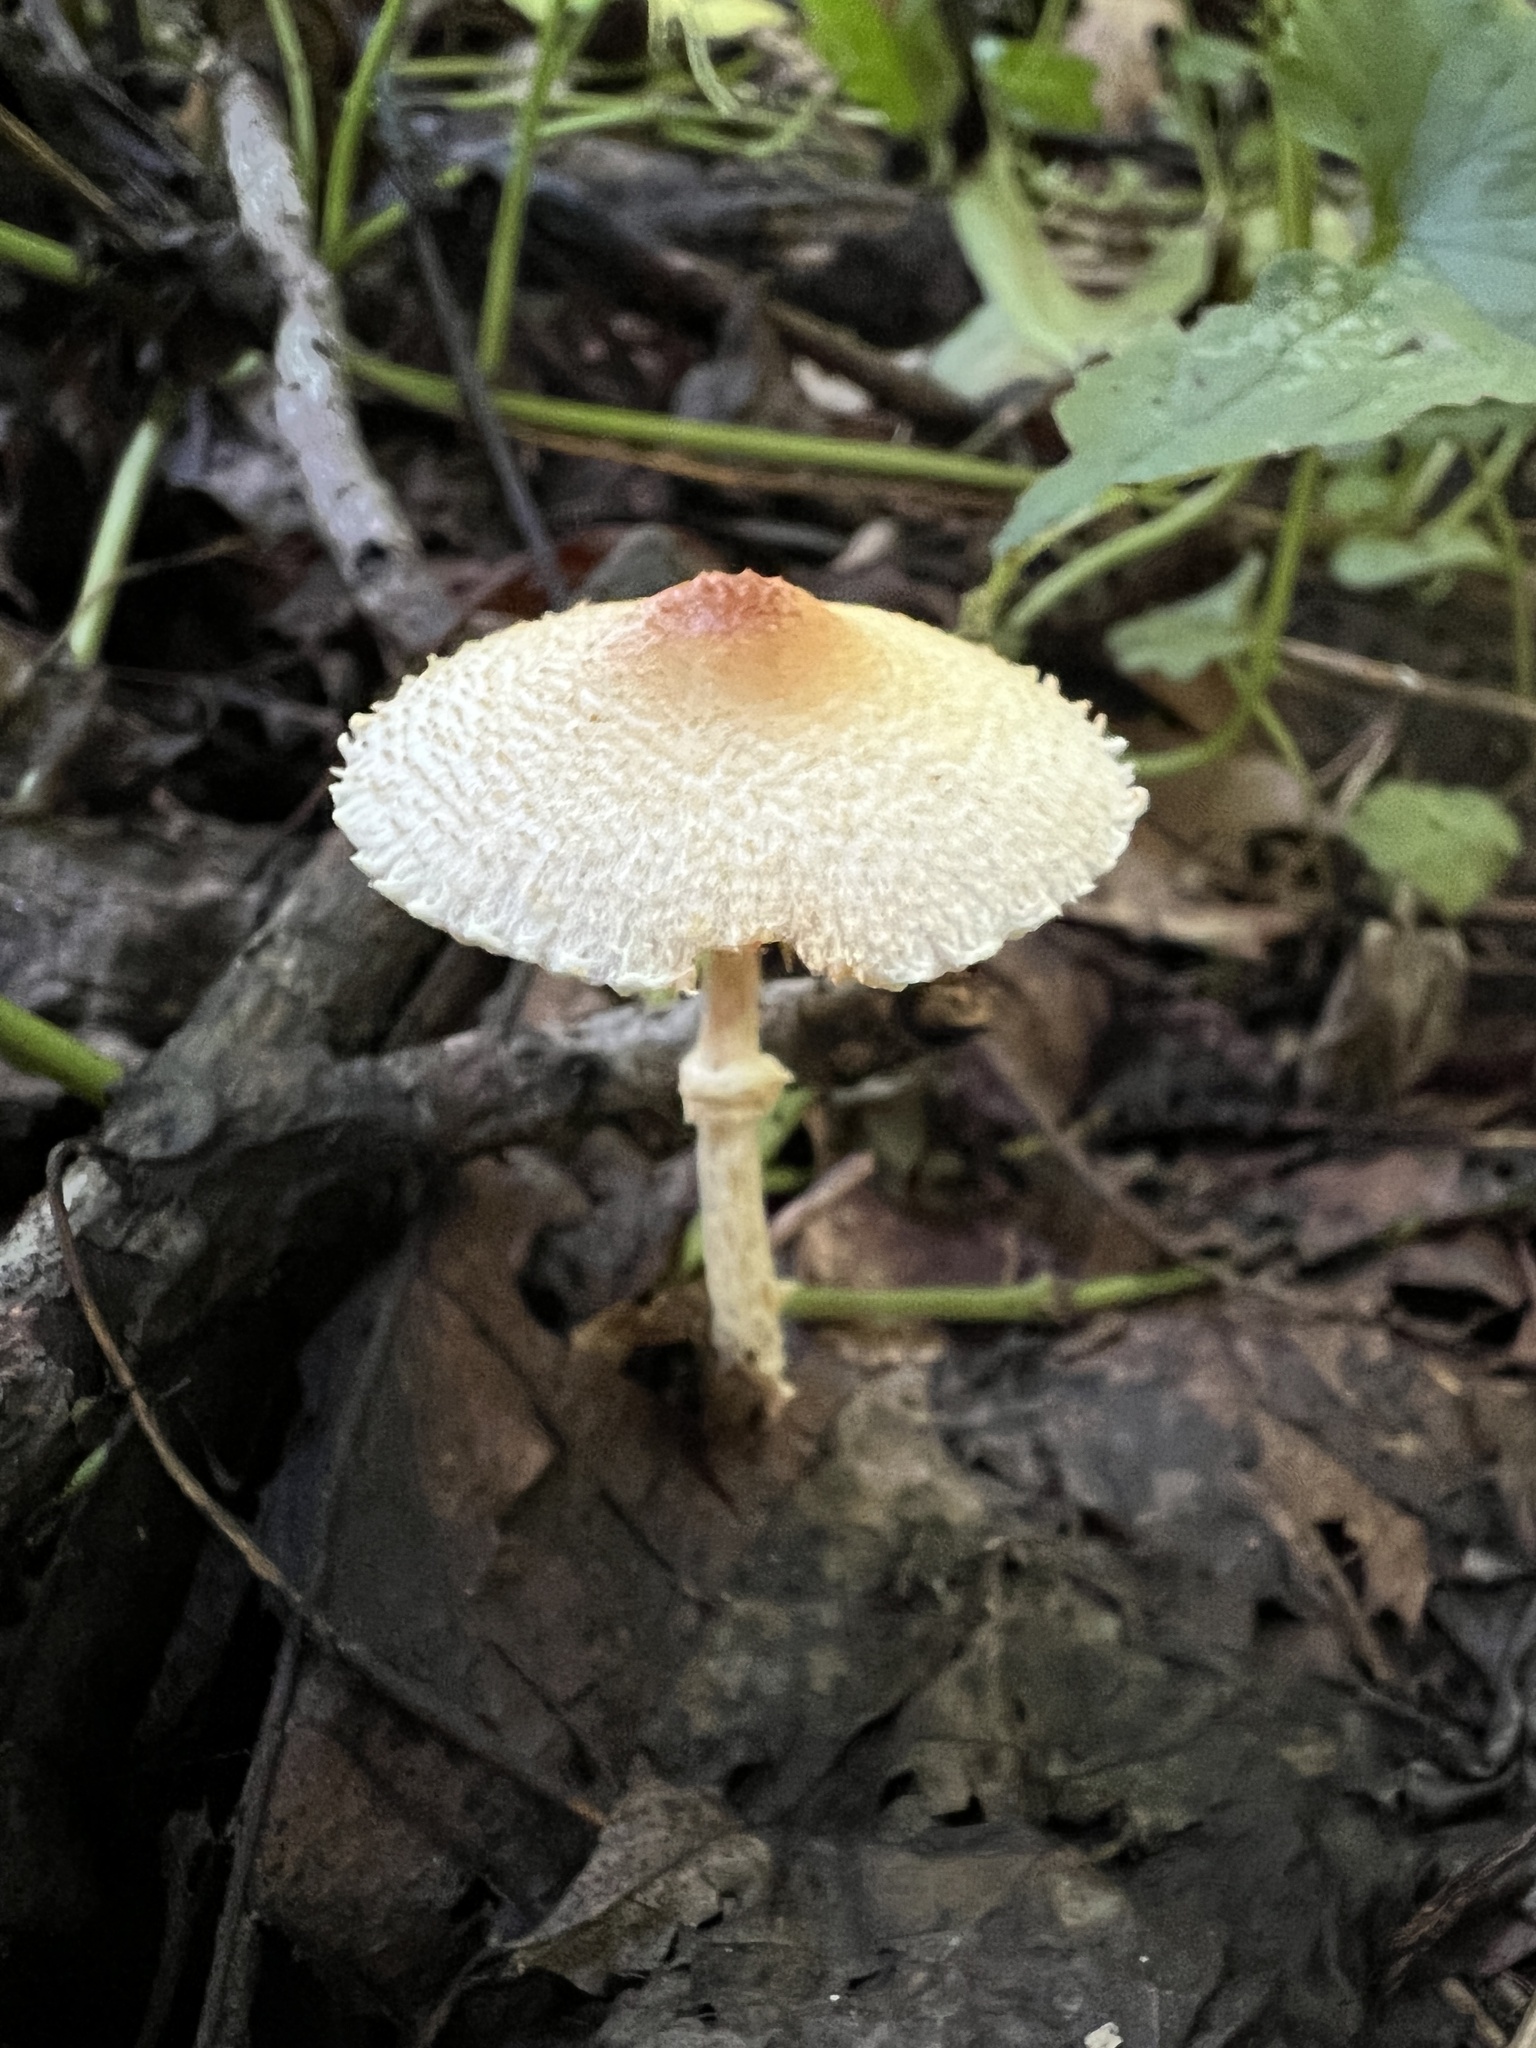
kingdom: Fungi
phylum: Basidiomycota
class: Agaricomycetes
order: Agaricales
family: Agaricaceae
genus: Lepiota
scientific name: Lepiota maculans
